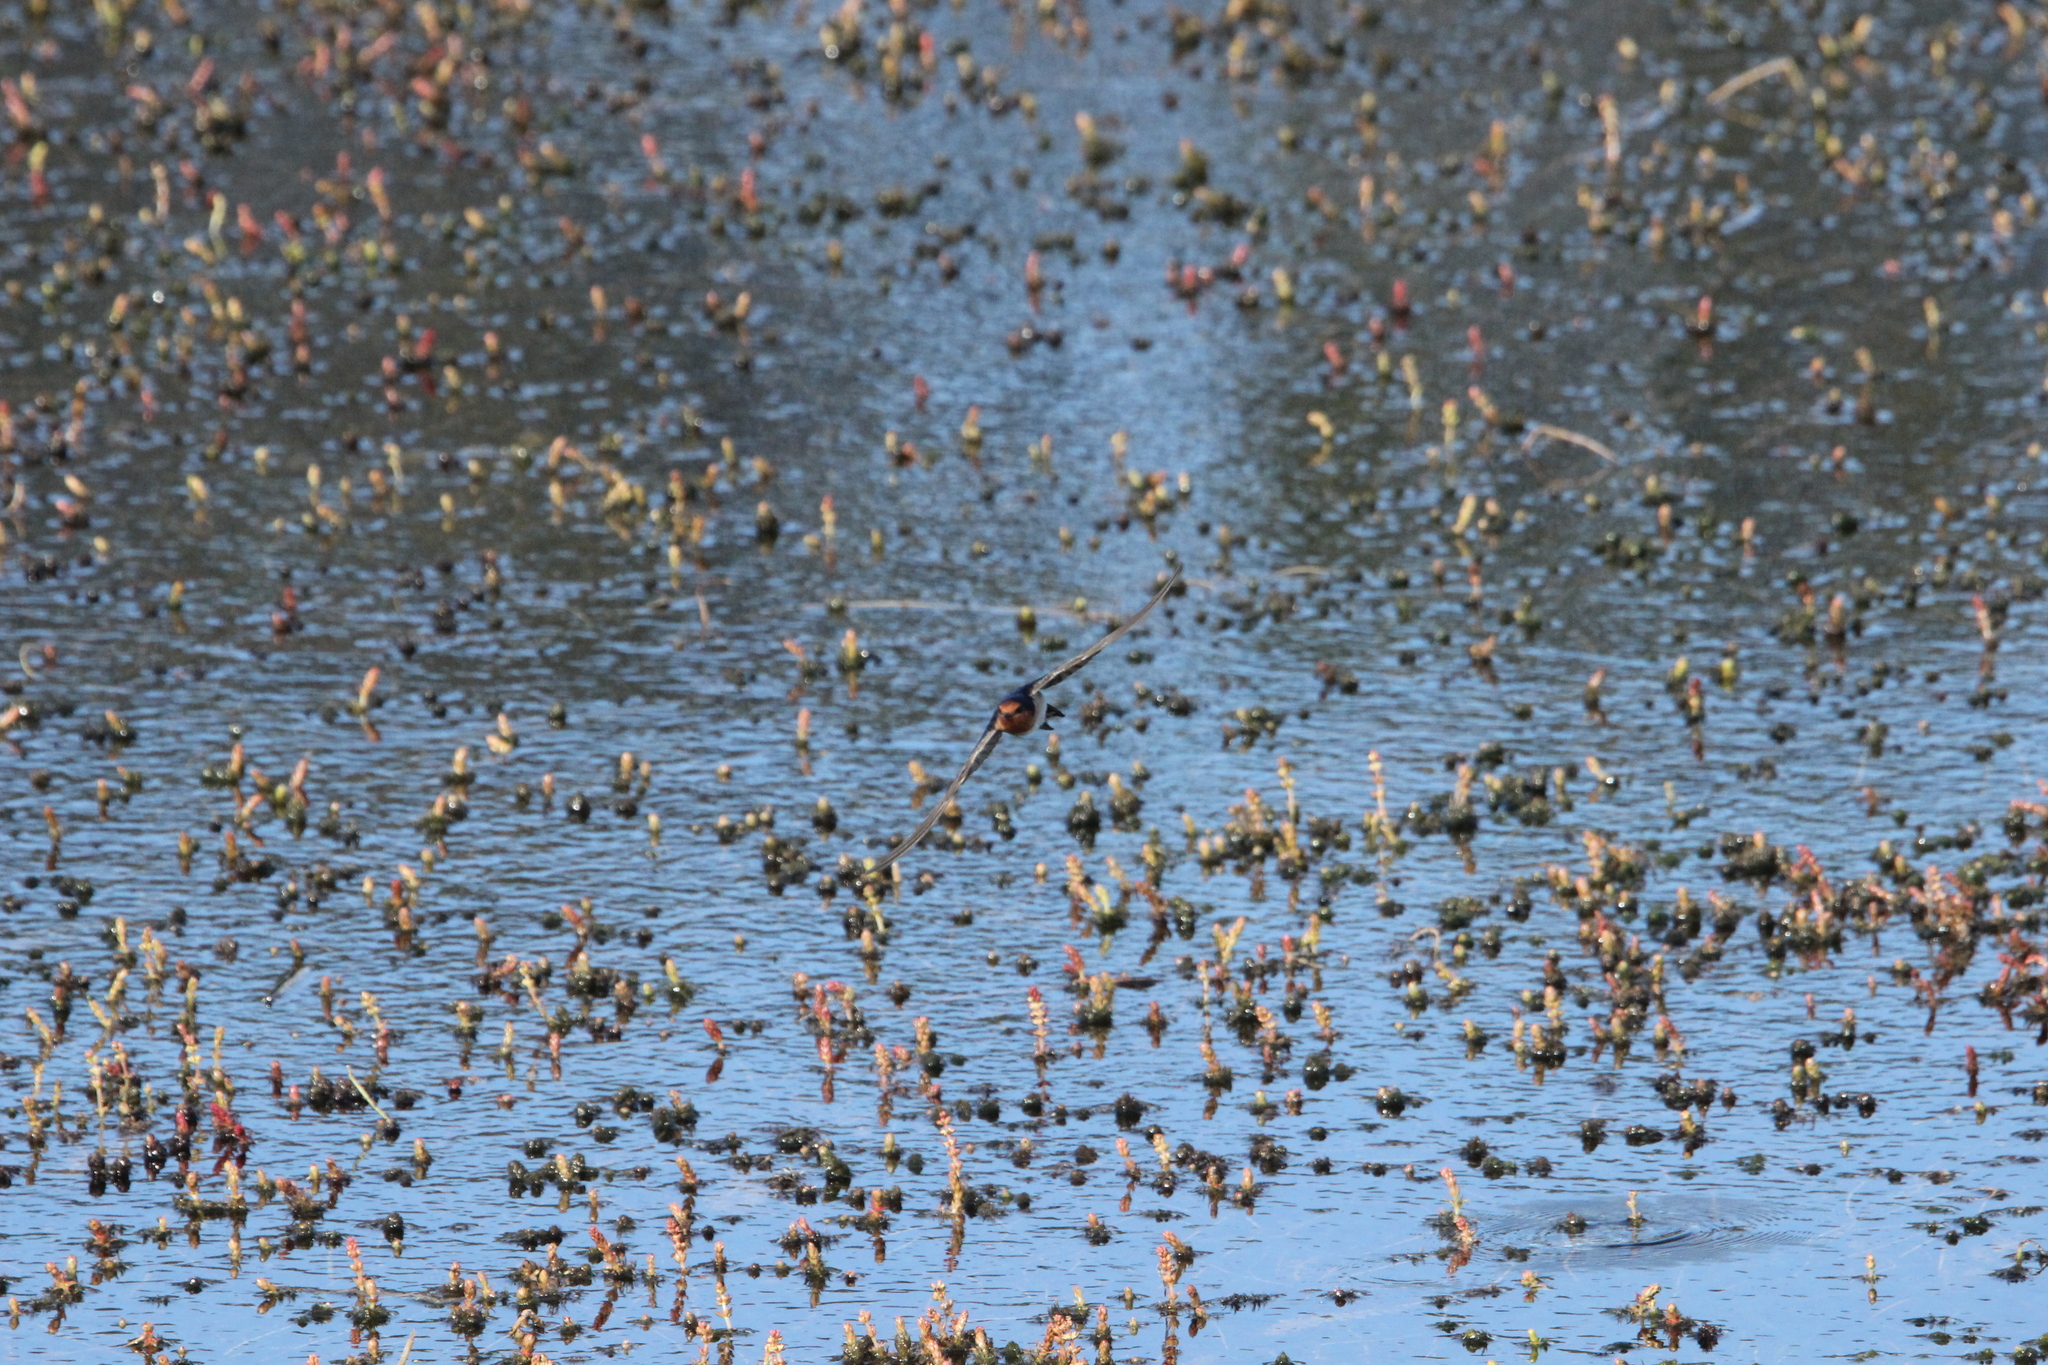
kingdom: Animalia
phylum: Chordata
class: Aves
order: Passeriformes
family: Hirundinidae
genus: Hirundo
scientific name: Hirundo neoxena
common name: Welcome swallow
